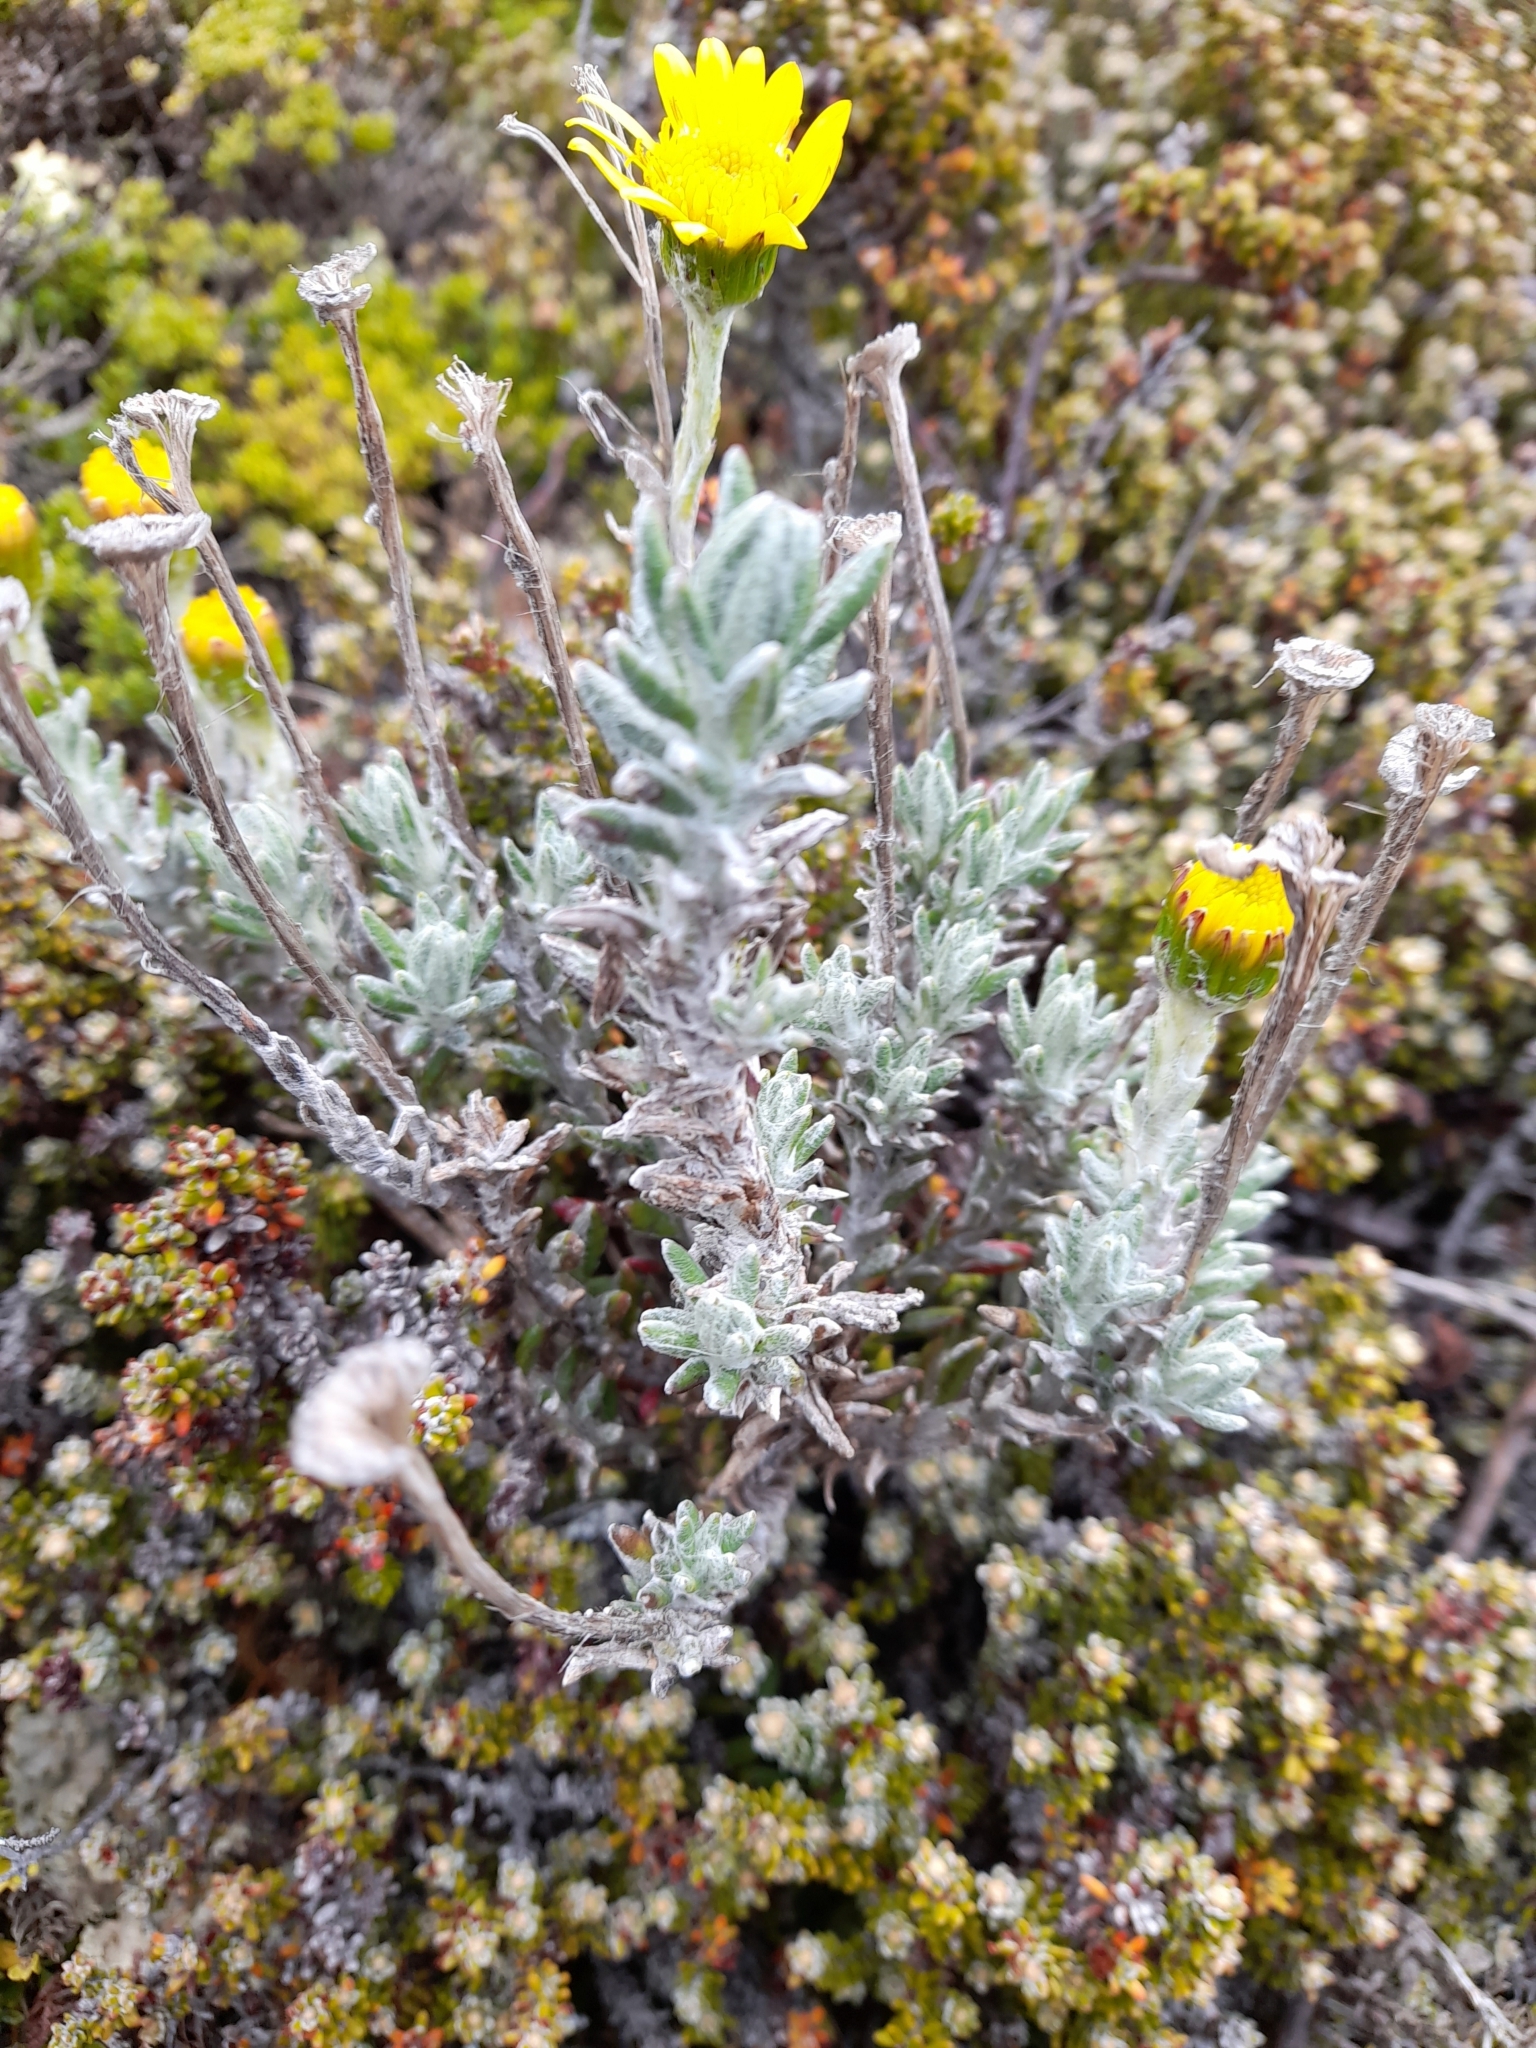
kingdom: Plantae
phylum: Tracheophyta
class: Magnoliopsida
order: Asterales
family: Asteraceae
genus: Senecio
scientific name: Senecio falklandicus
